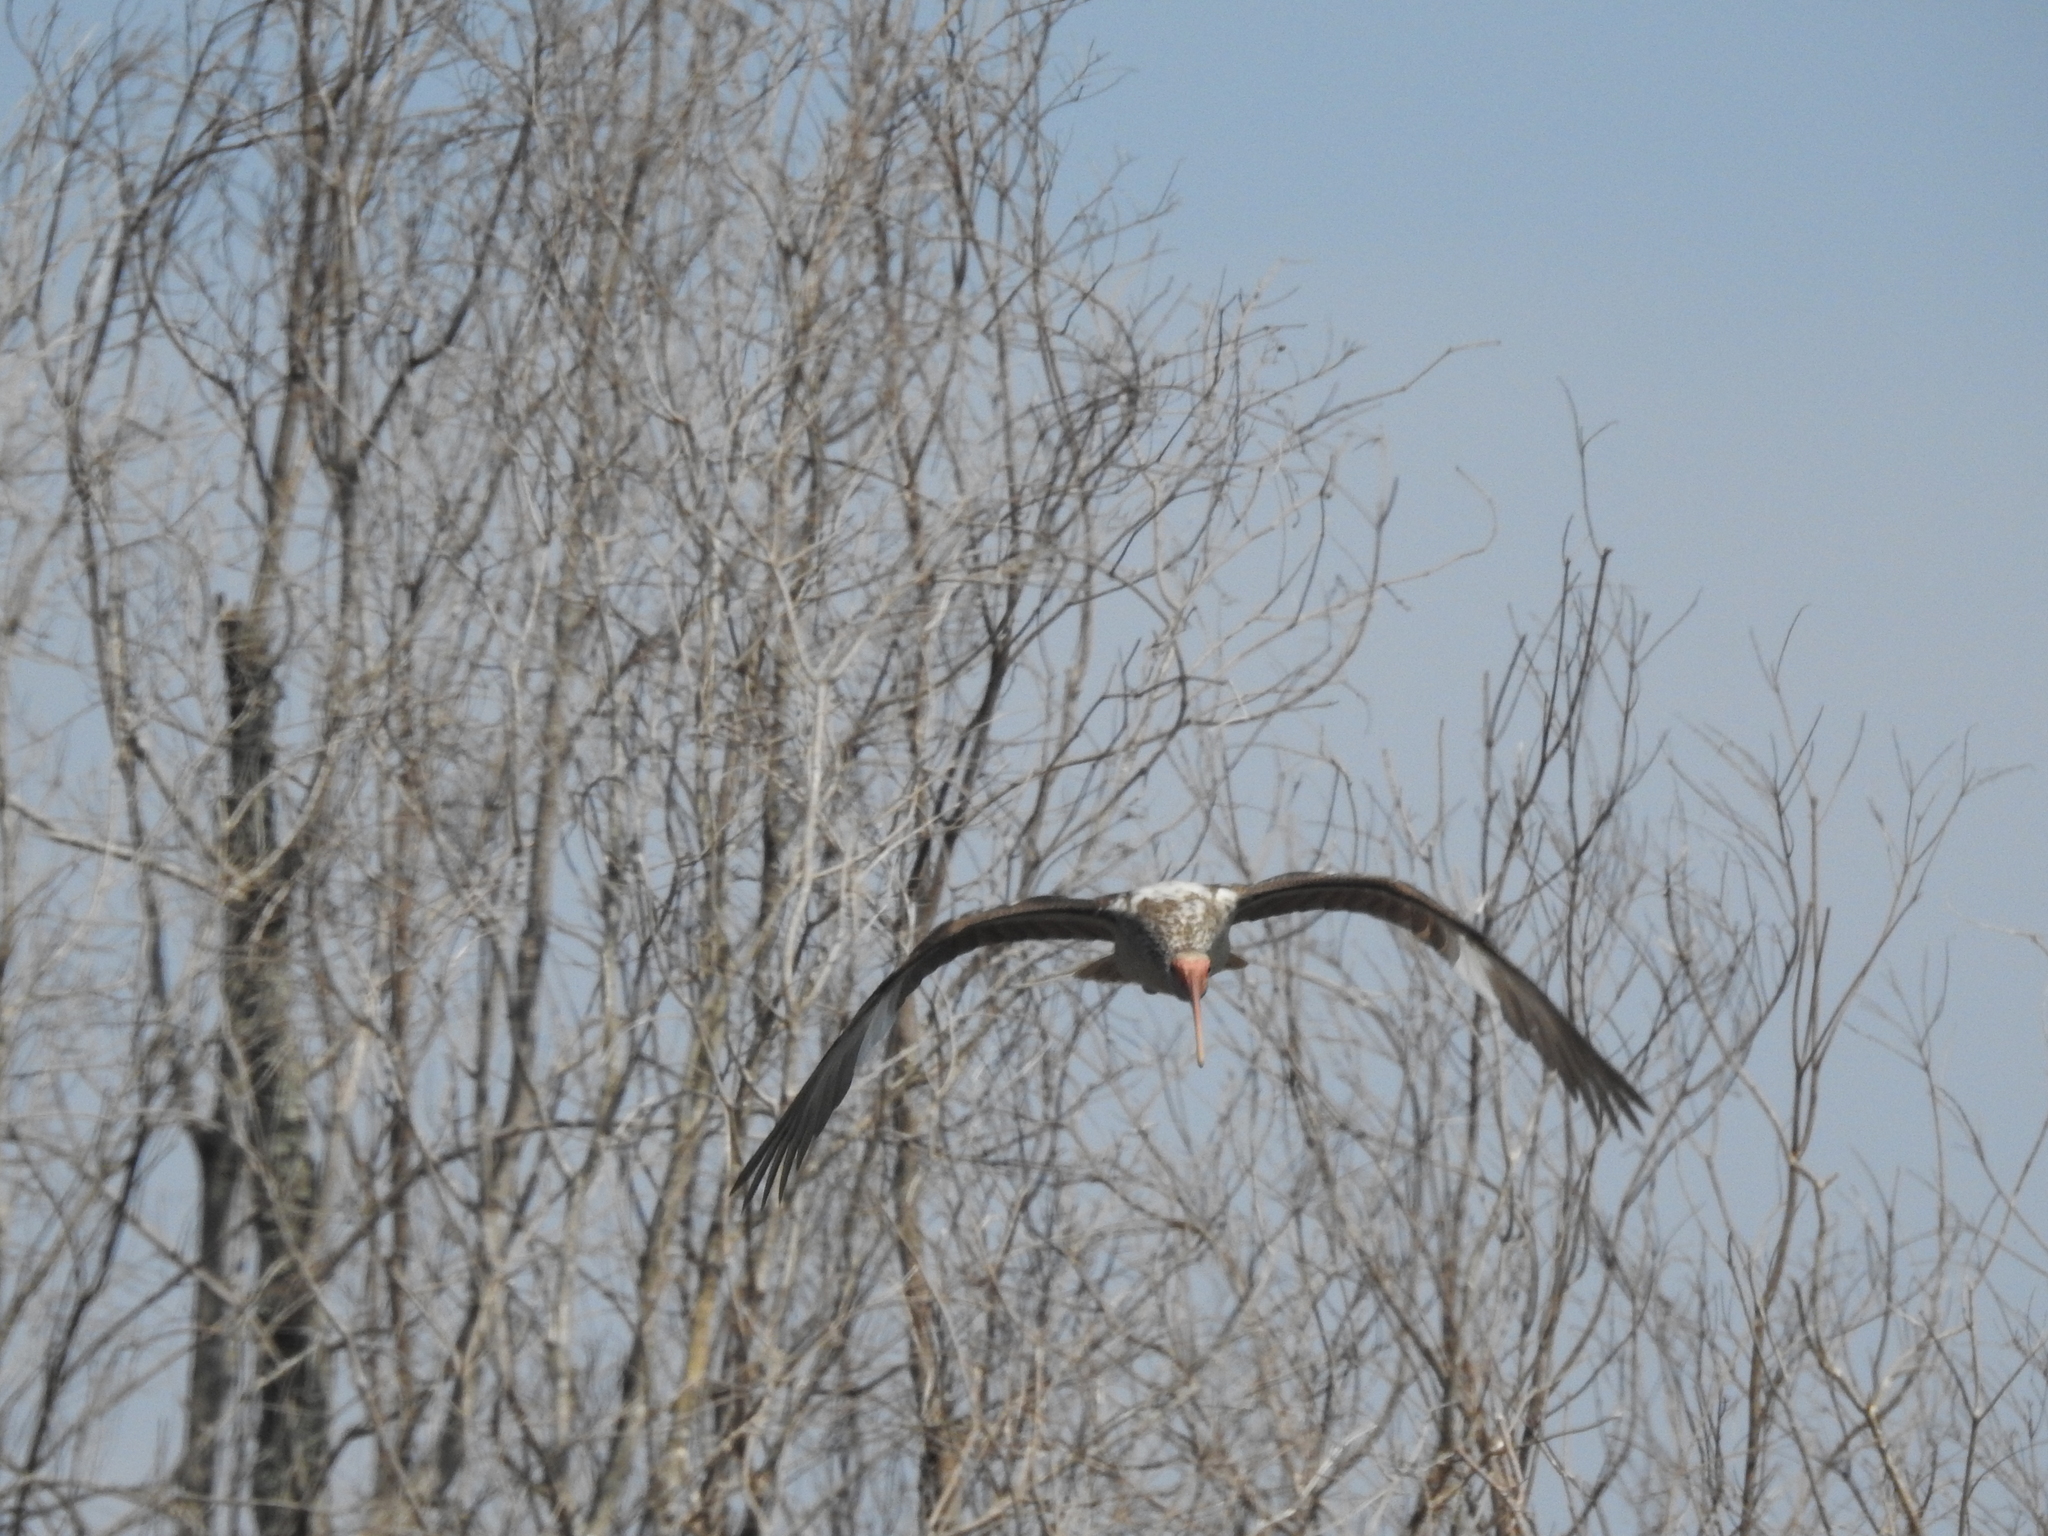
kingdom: Animalia
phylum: Chordata
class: Aves
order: Pelecaniformes
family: Threskiornithidae
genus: Eudocimus
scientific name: Eudocimus albus
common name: White ibis
